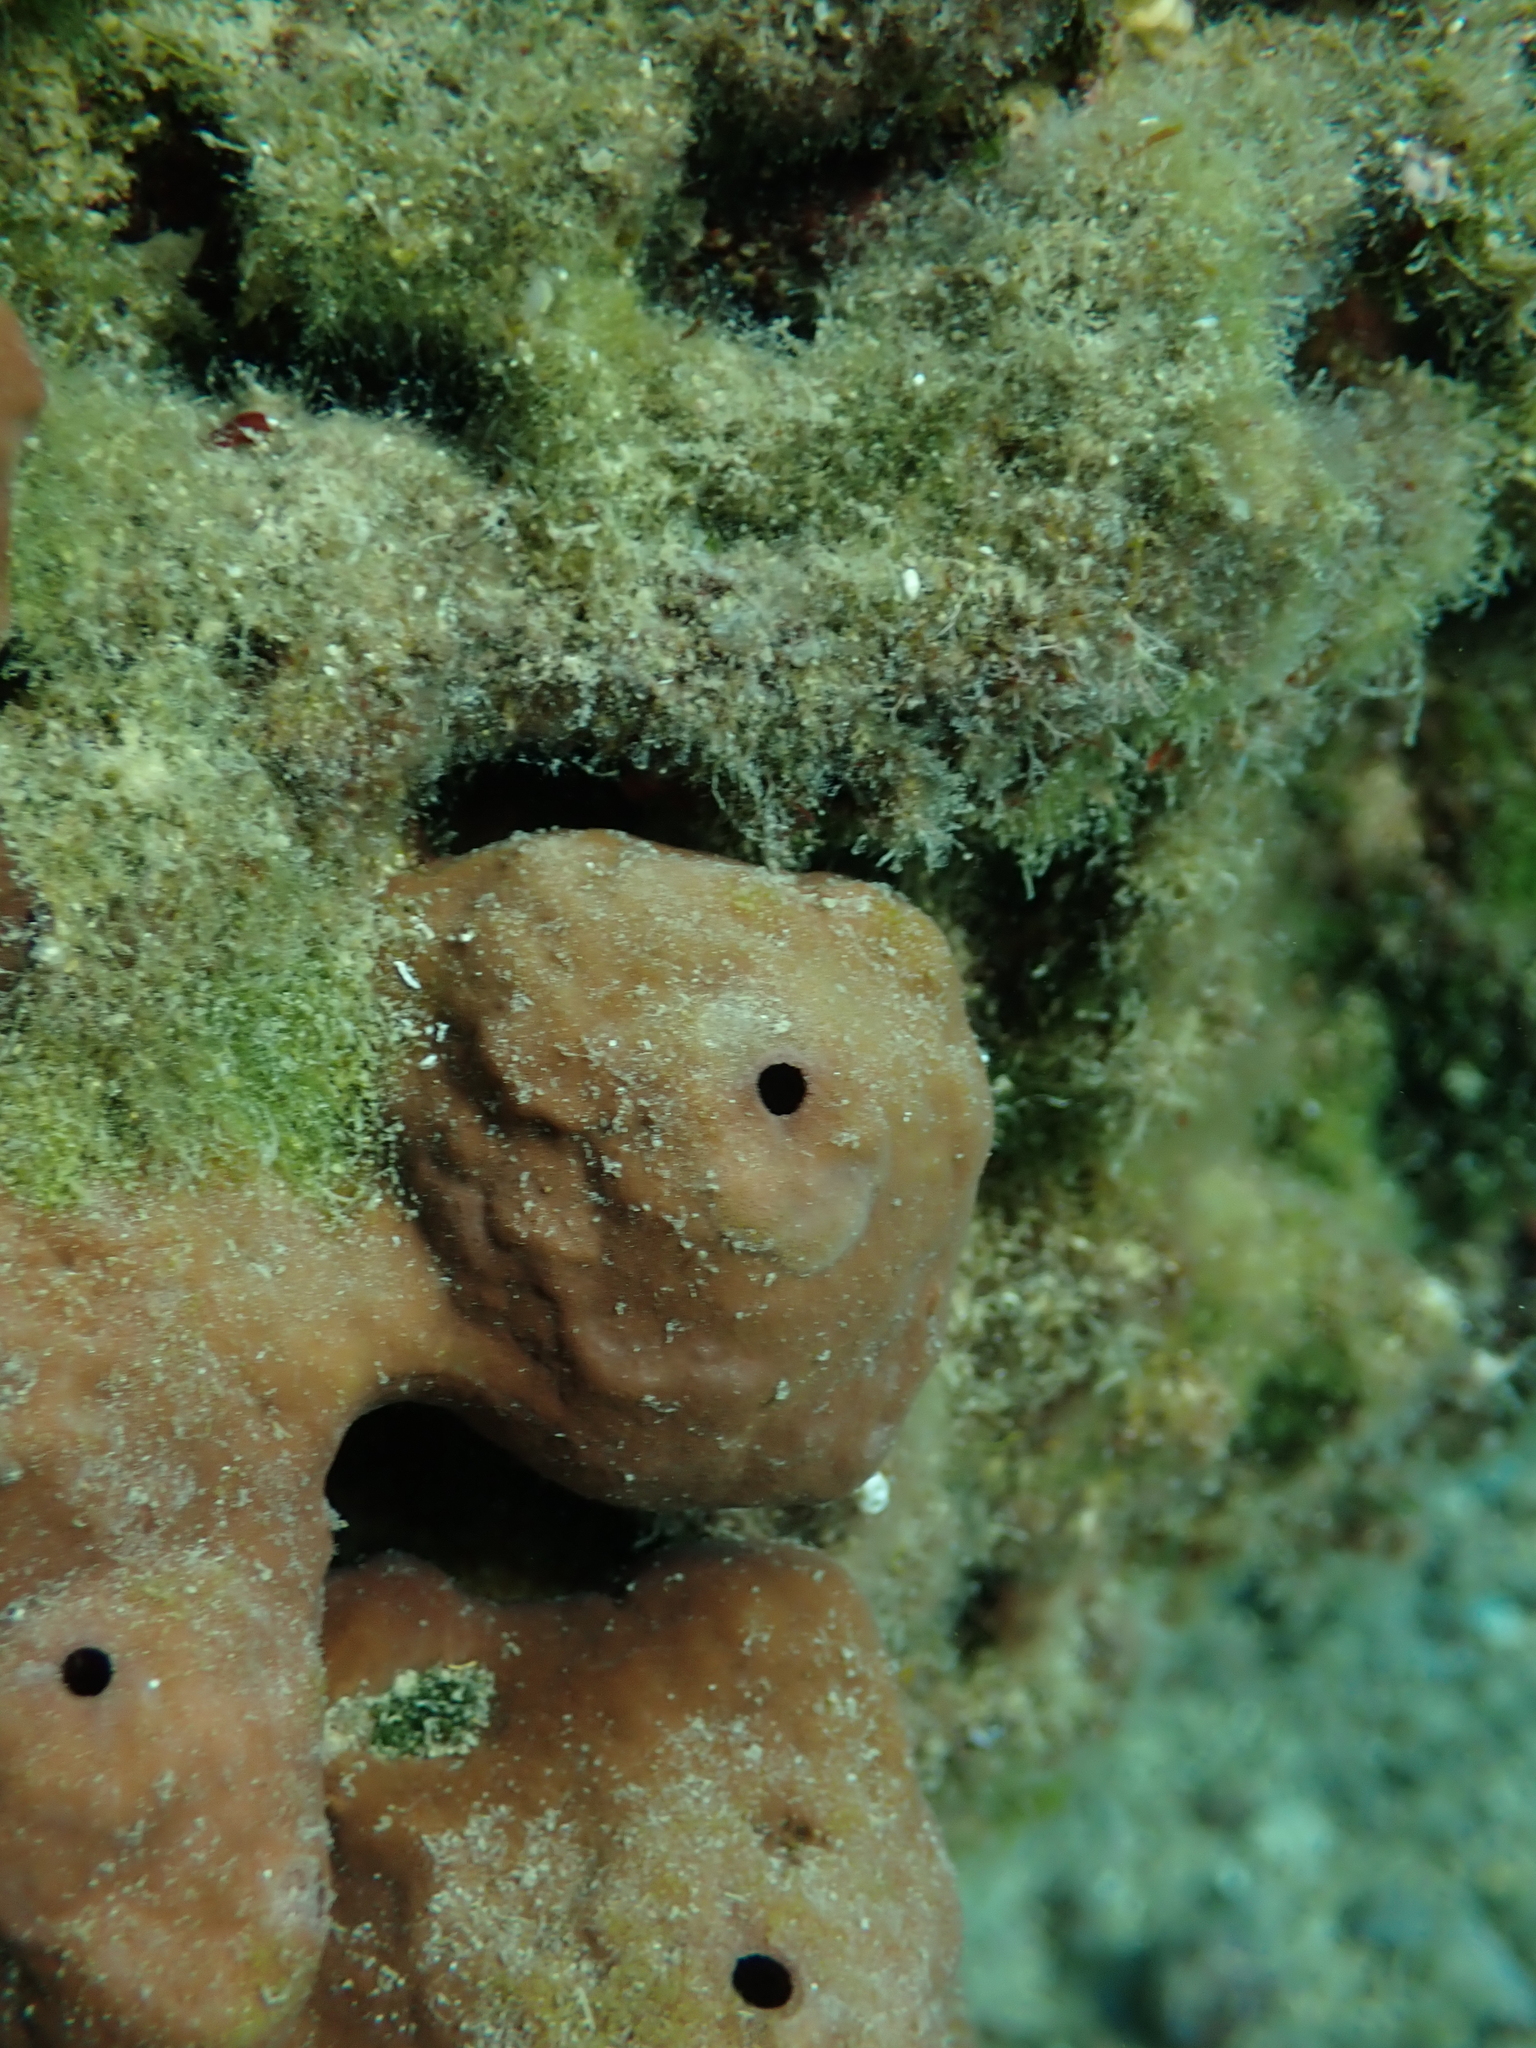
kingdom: Animalia
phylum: Porifera
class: Demospongiae
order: Haplosclerida
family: Petrosiidae
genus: Petrosia
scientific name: Petrosia ficiformis
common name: Stony sponge
